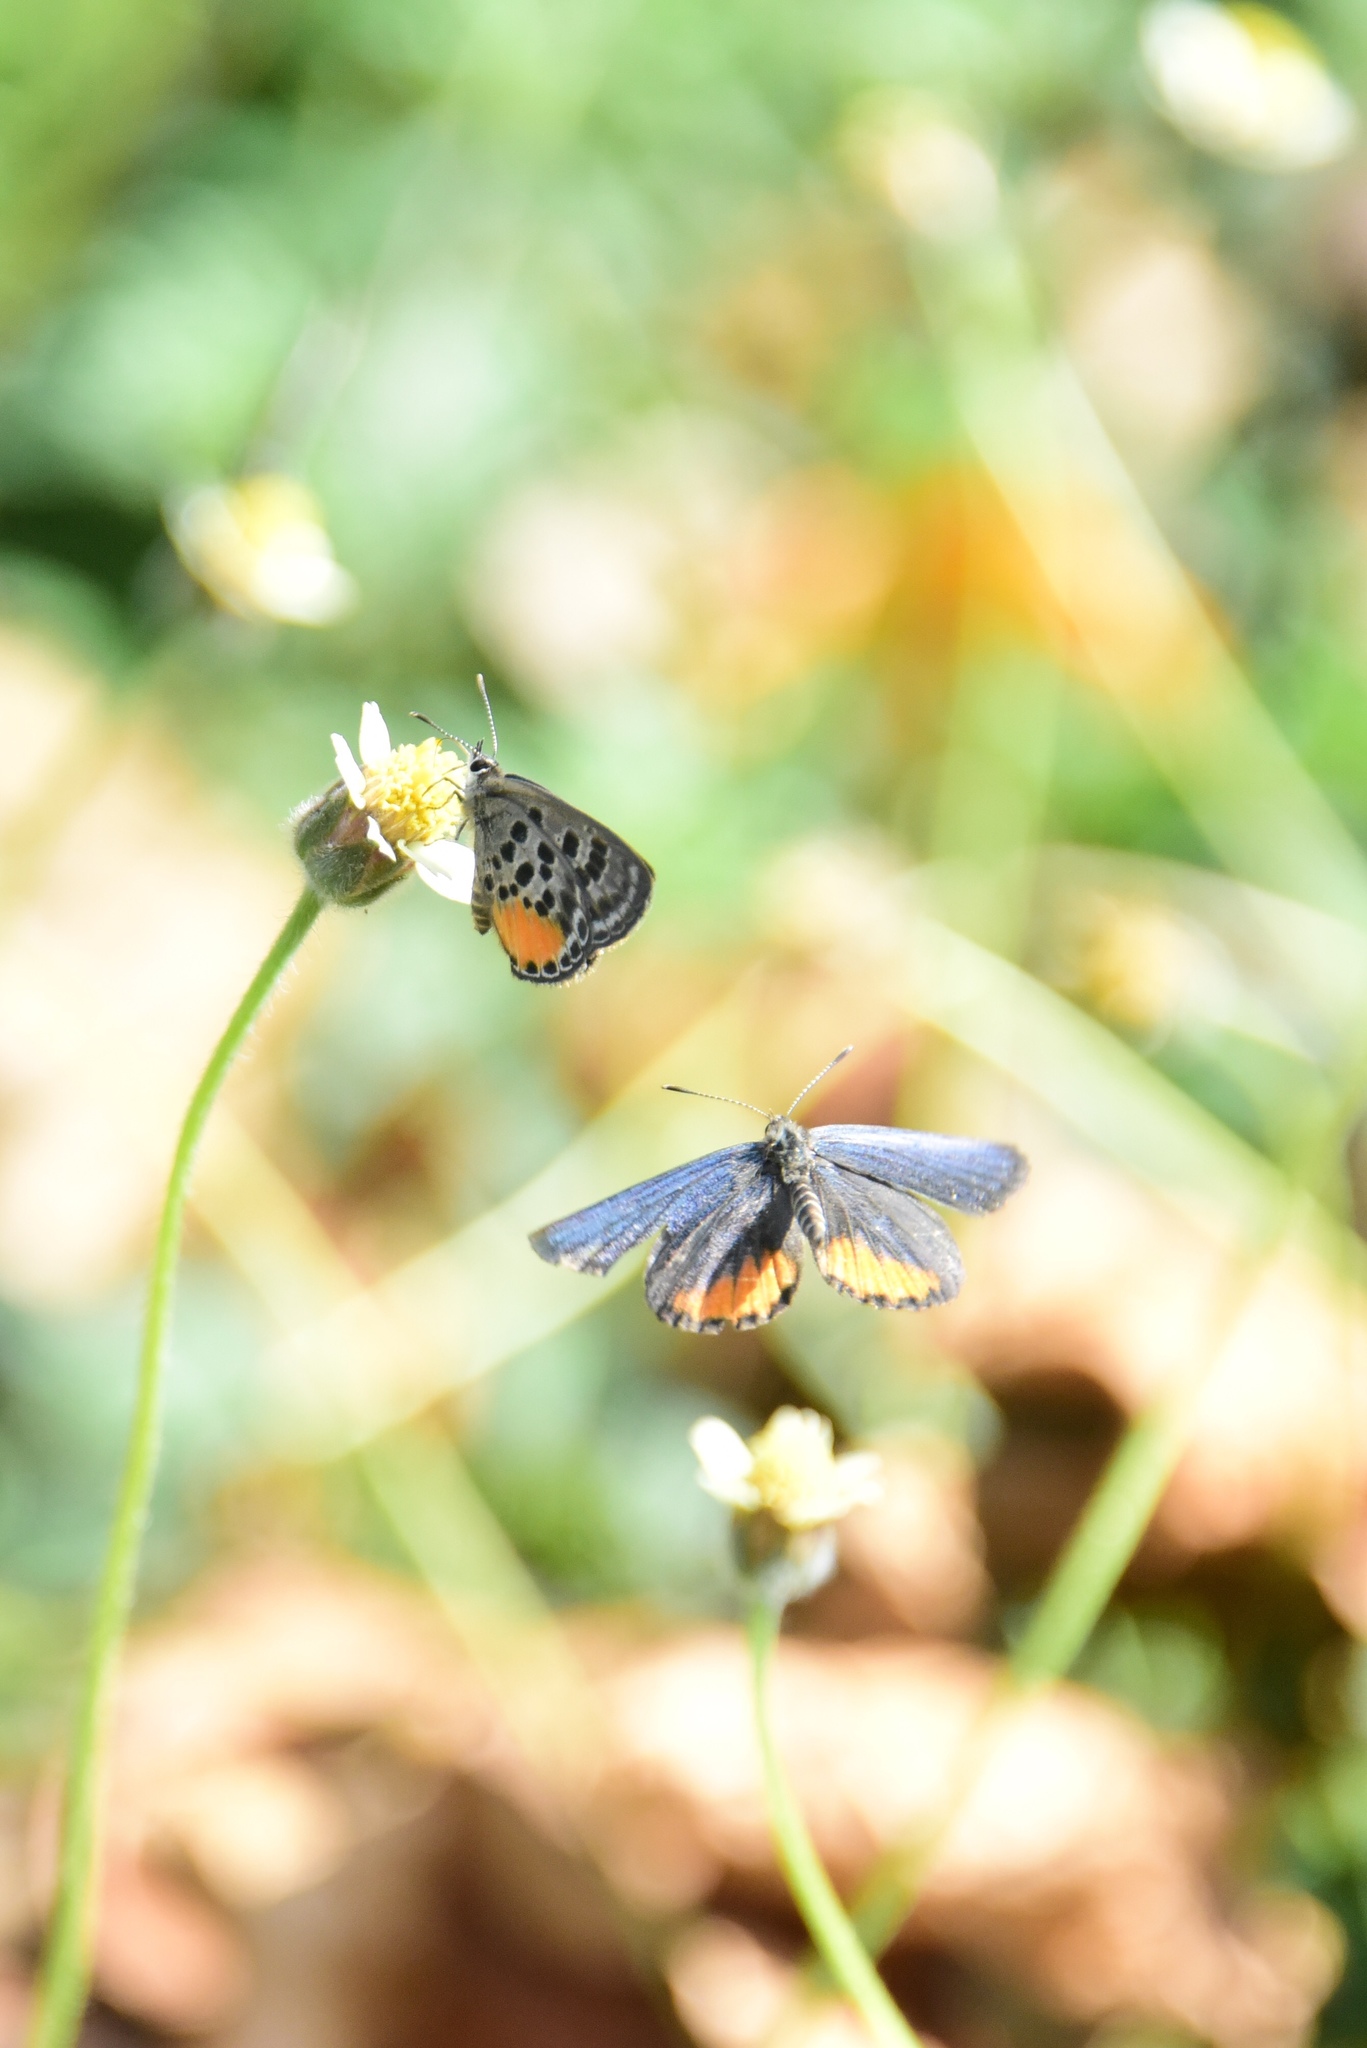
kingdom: Animalia
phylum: Arthropoda
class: Insecta
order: Lepidoptera
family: Lycaenidae
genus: Luthrodes
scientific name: Luthrodes cleotas
